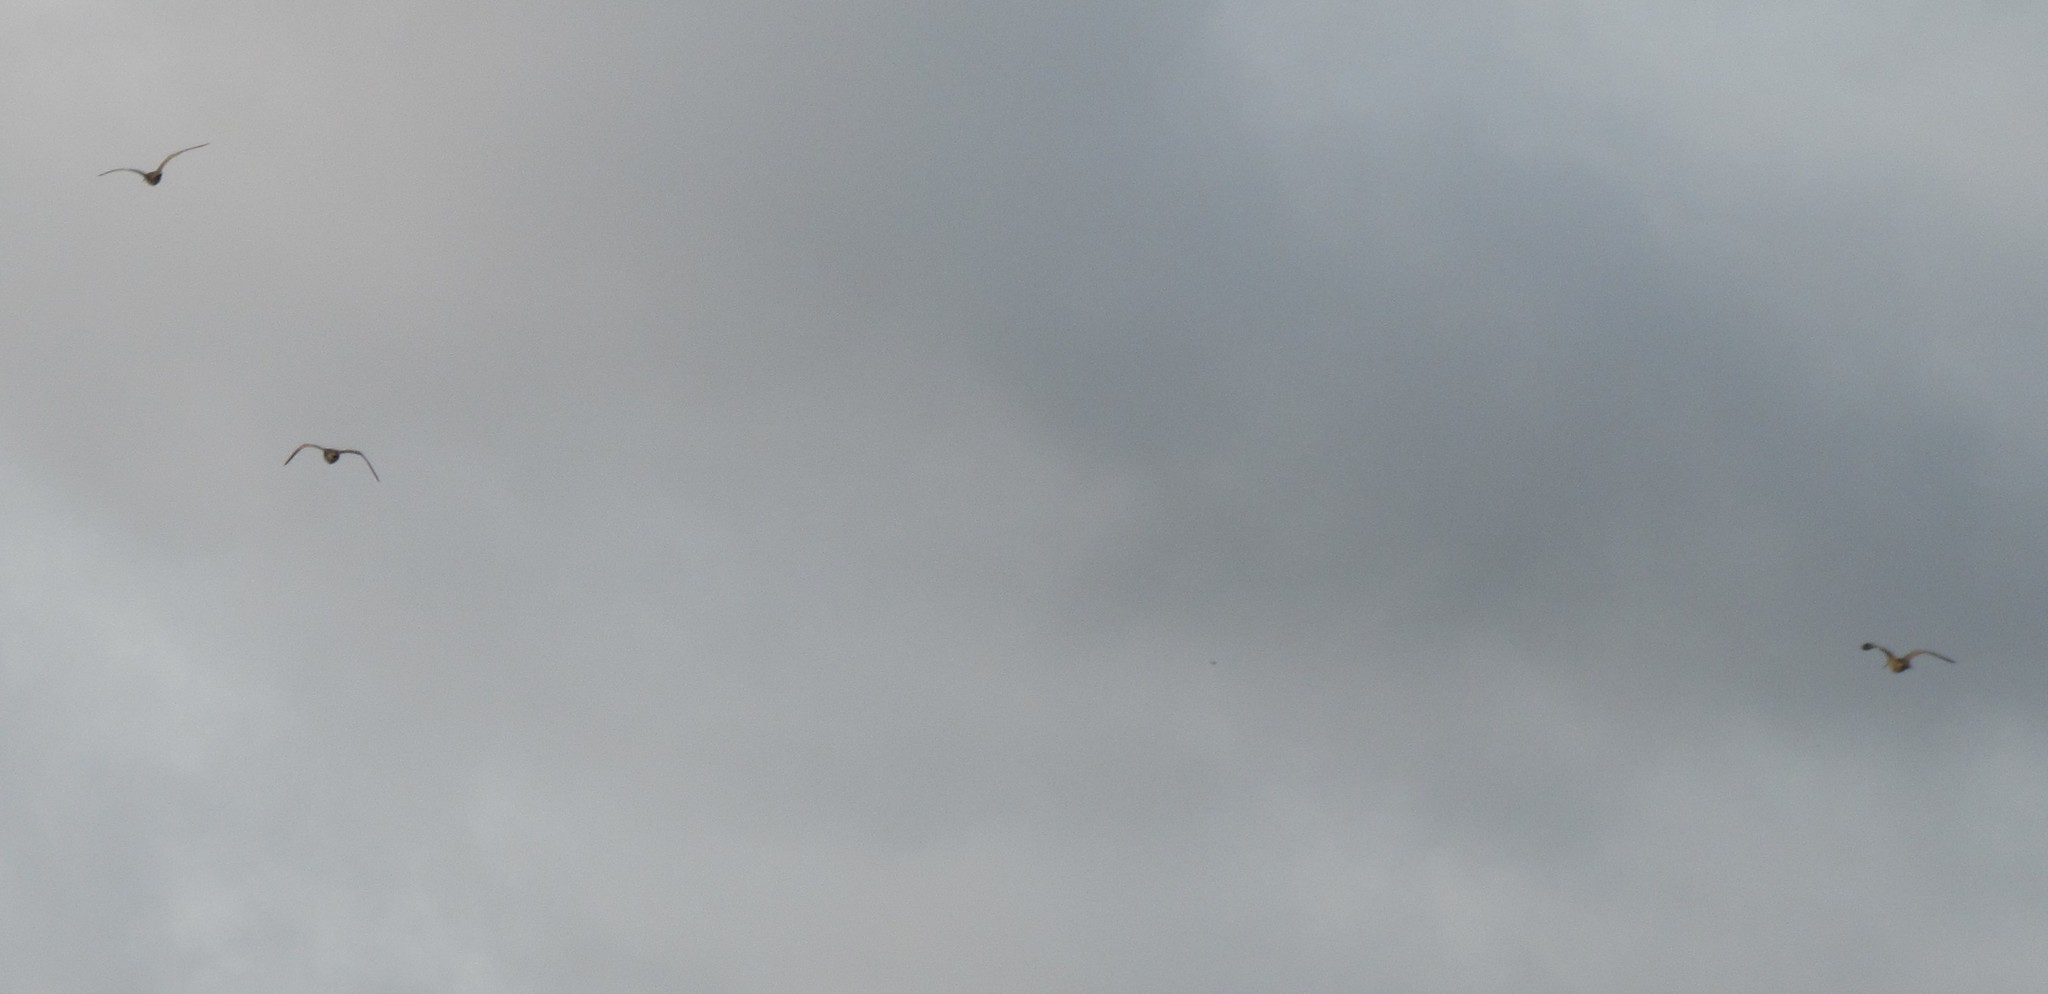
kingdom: Animalia
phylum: Chordata
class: Aves
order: Charadriiformes
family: Scolopacidae
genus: Numenius
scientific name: Numenius phaeopus
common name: Whimbrel
